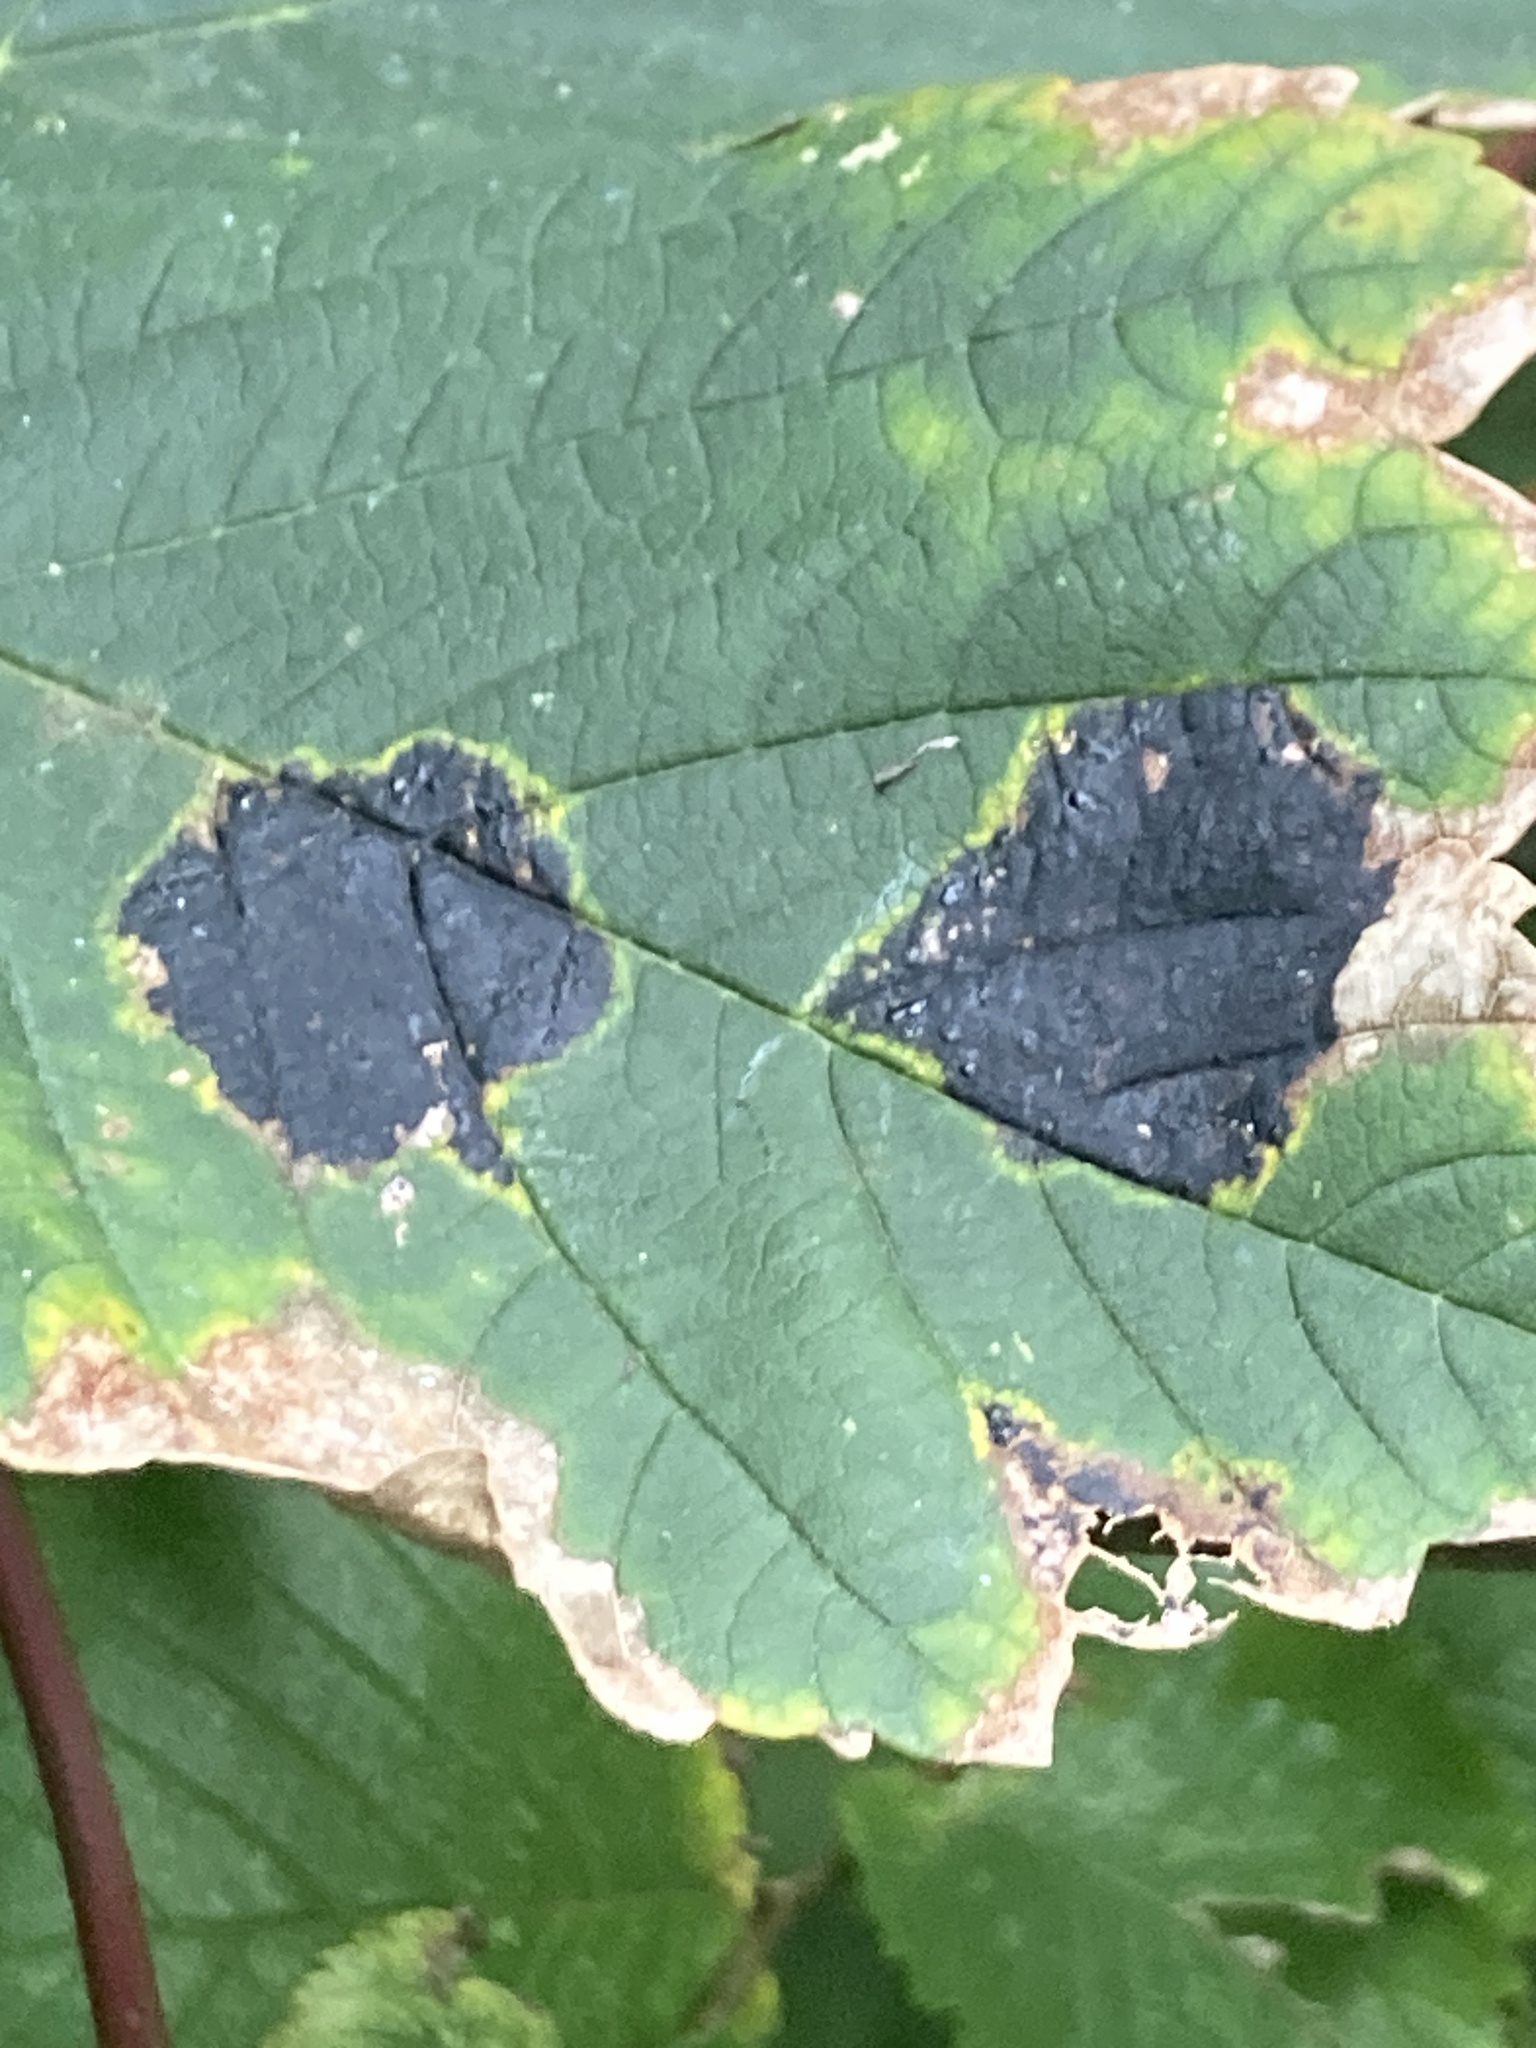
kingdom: Fungi
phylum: Ascomycota
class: Leotiomycetes
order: Rhytismatales
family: Rhytismataceae
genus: Rhytisma
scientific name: Rhytisma acerinum
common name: European tar spot
